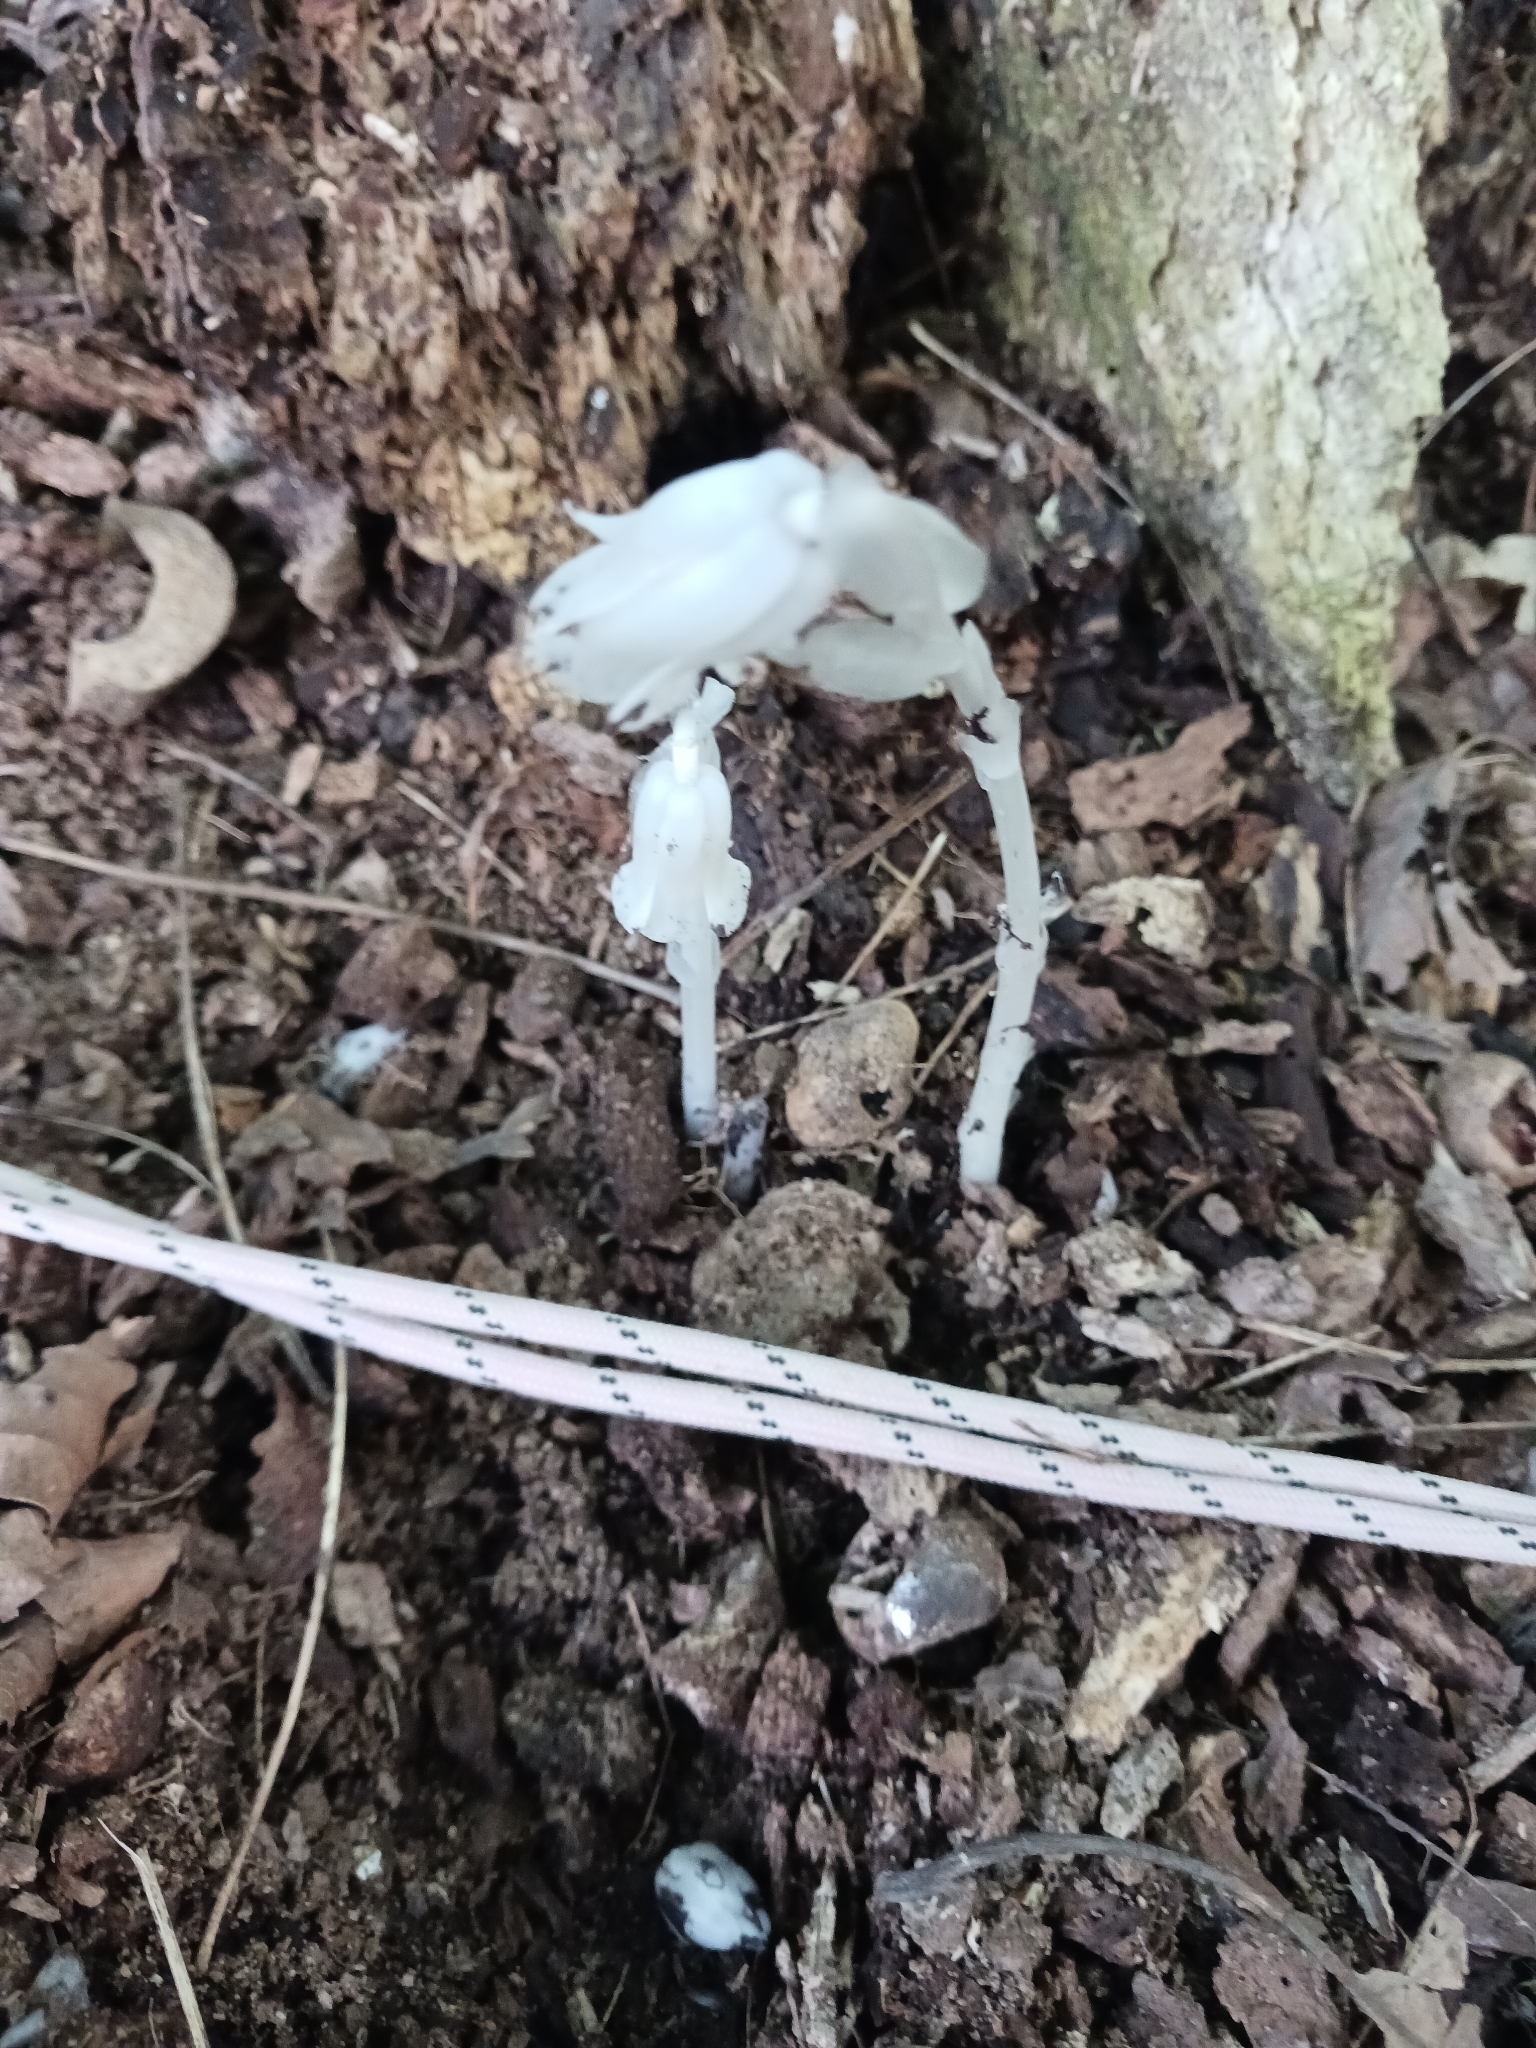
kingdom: Plantae
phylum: Tracheophyta
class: Magnoliopsida
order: Ericales
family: Ericaceae
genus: Monotropa
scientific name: Monotropa uniflora
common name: Convulsion root
